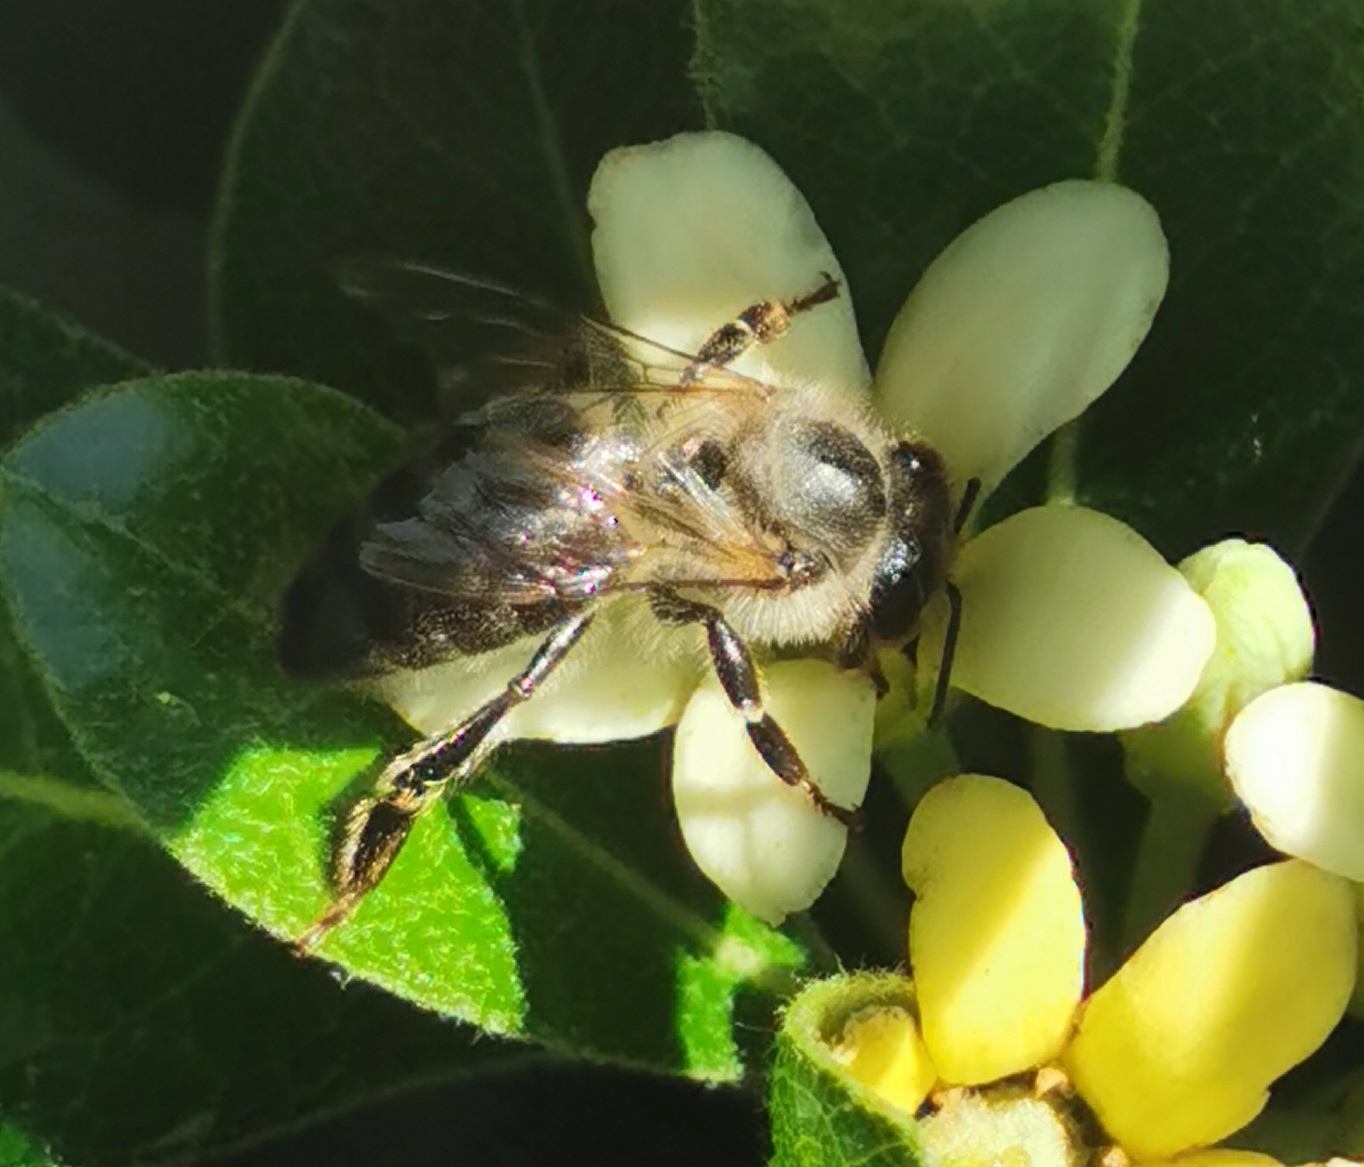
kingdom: Animalia
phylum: Arthropoda
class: Insecta
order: Hymenoptera
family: Apidae
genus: Apis
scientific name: Apis mellifera
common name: Honey bee
